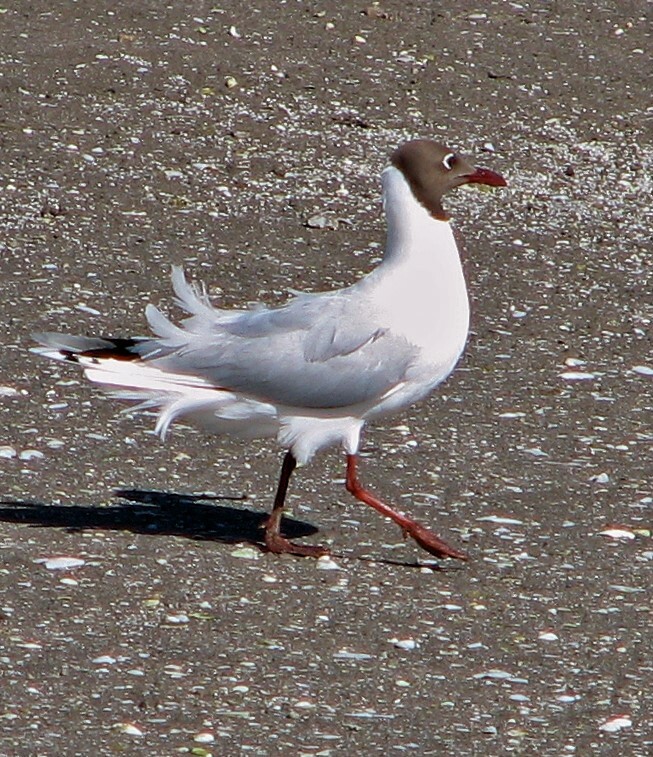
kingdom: Animalia
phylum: Chordata
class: Aves
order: Charadriiformes
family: Laridae
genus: Chroicocephalus
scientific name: Chroicocephalus maculipennis
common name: Brown-hooded gull
